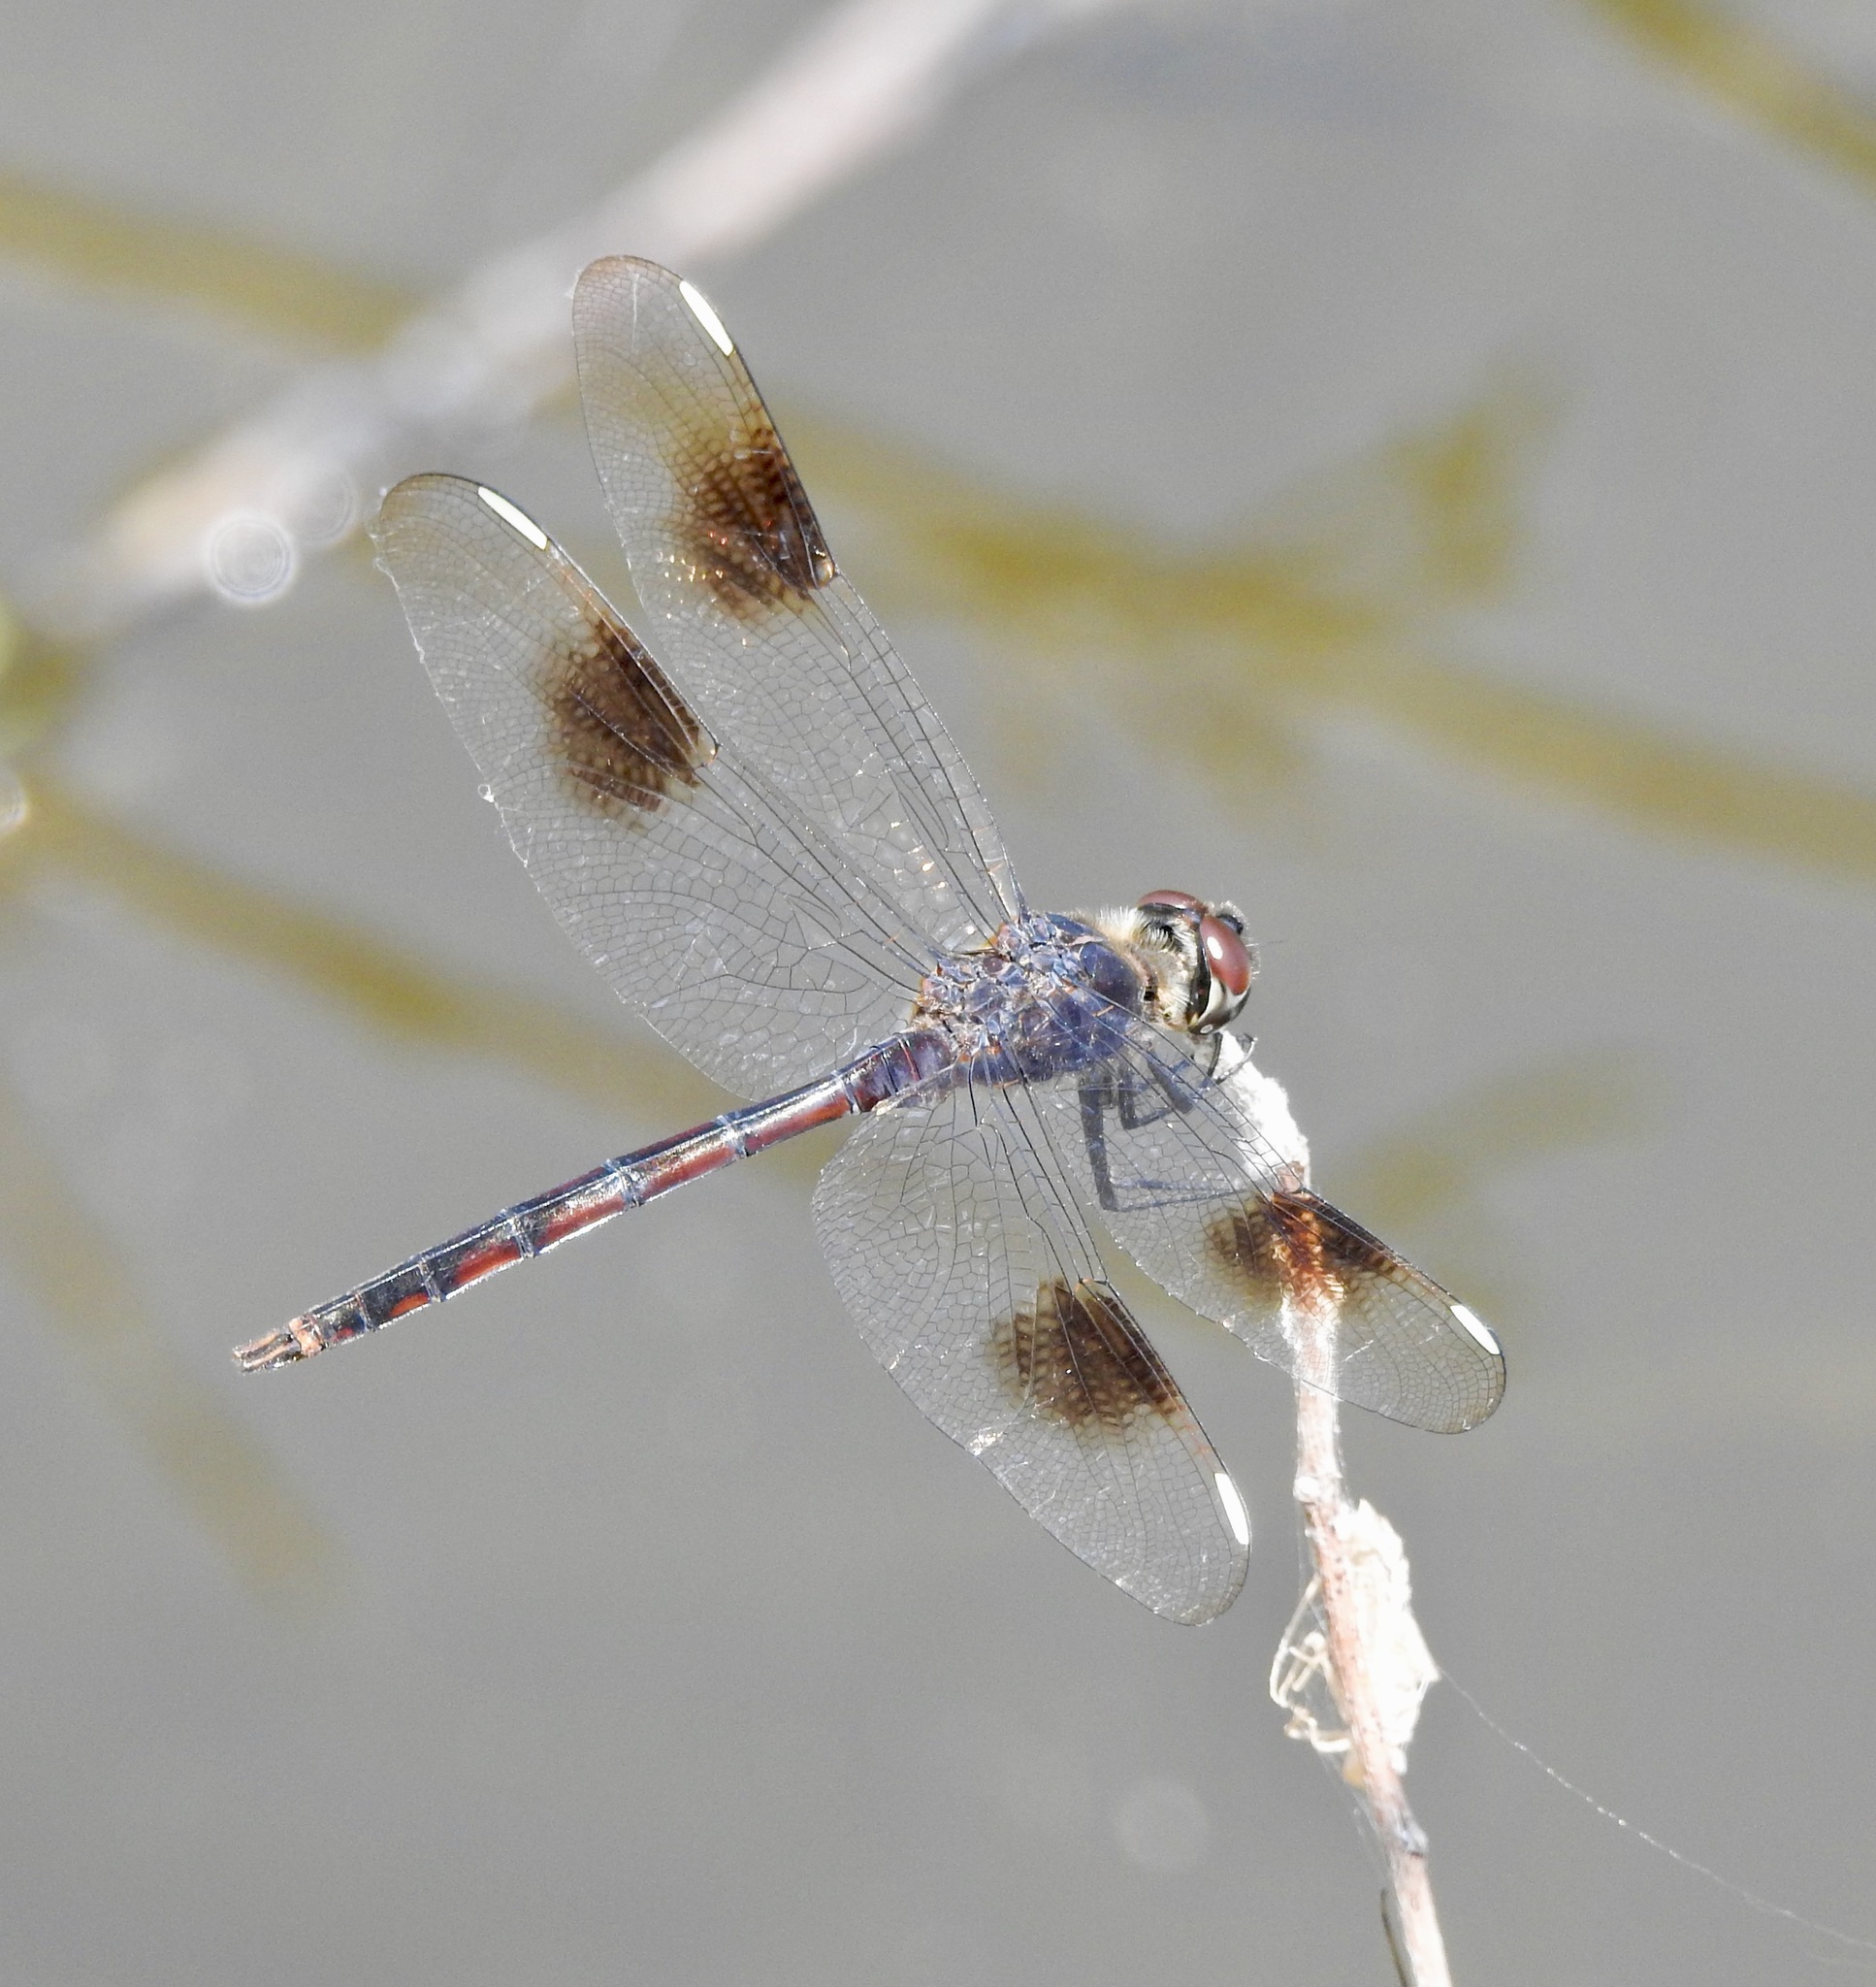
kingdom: Animalia
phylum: Arthropoda
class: Insecta
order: Odonata
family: Libellulidae
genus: Brachymesia
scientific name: Brachymesia gravida
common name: Four-spotted pennant
